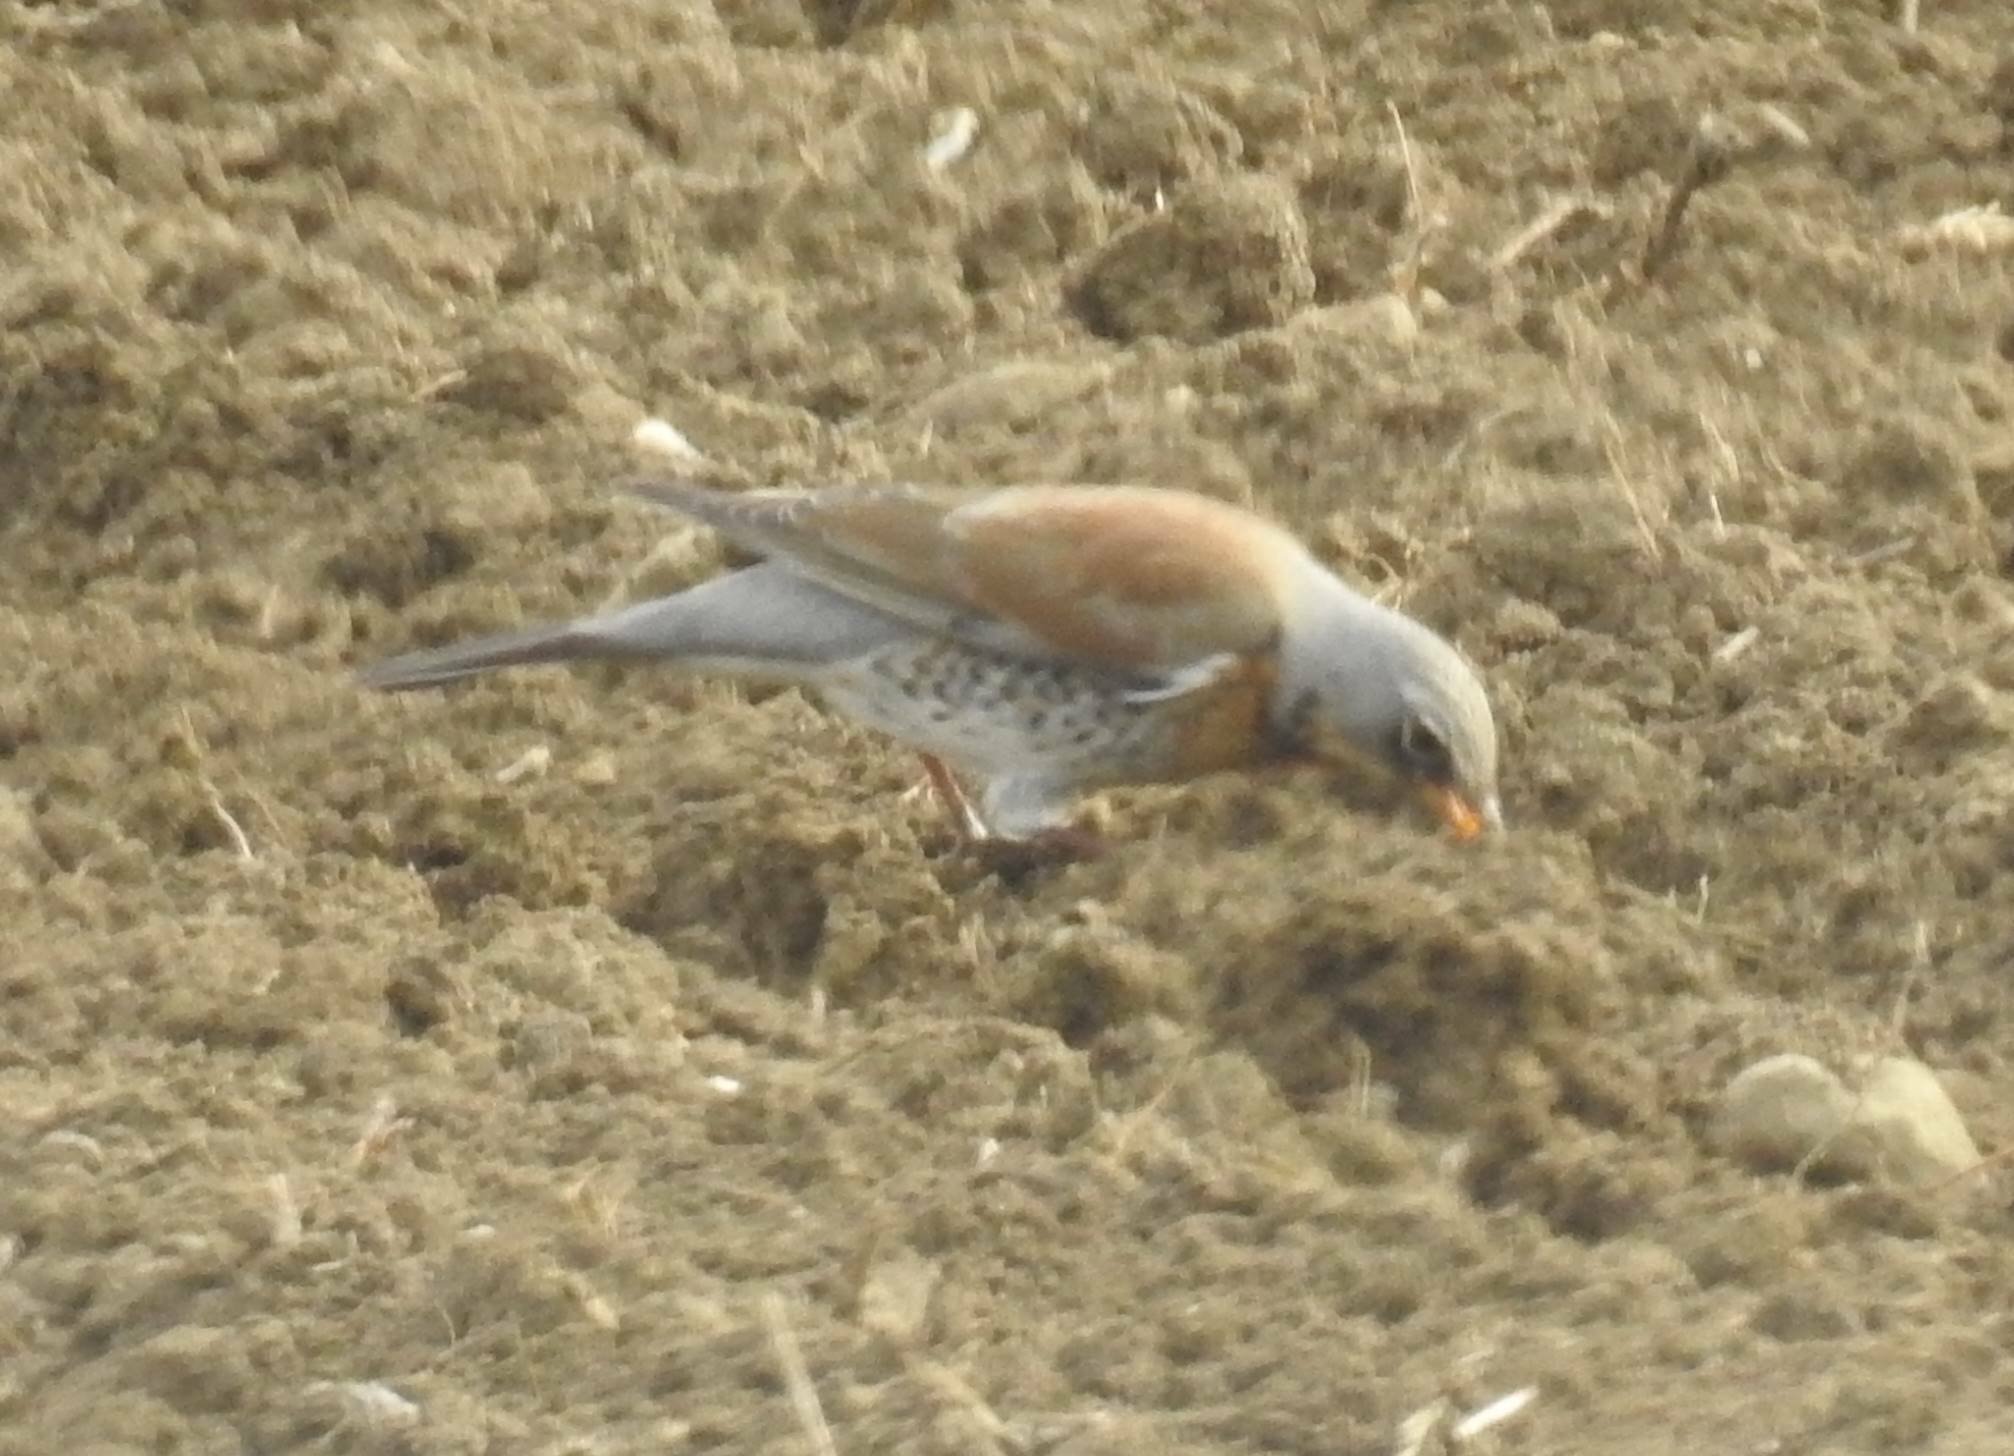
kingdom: Animalia
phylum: Chordata
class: Aves
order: Passeriformes
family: Turdidae
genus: Turdus
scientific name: Turdus pilaris
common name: Fieldfare
